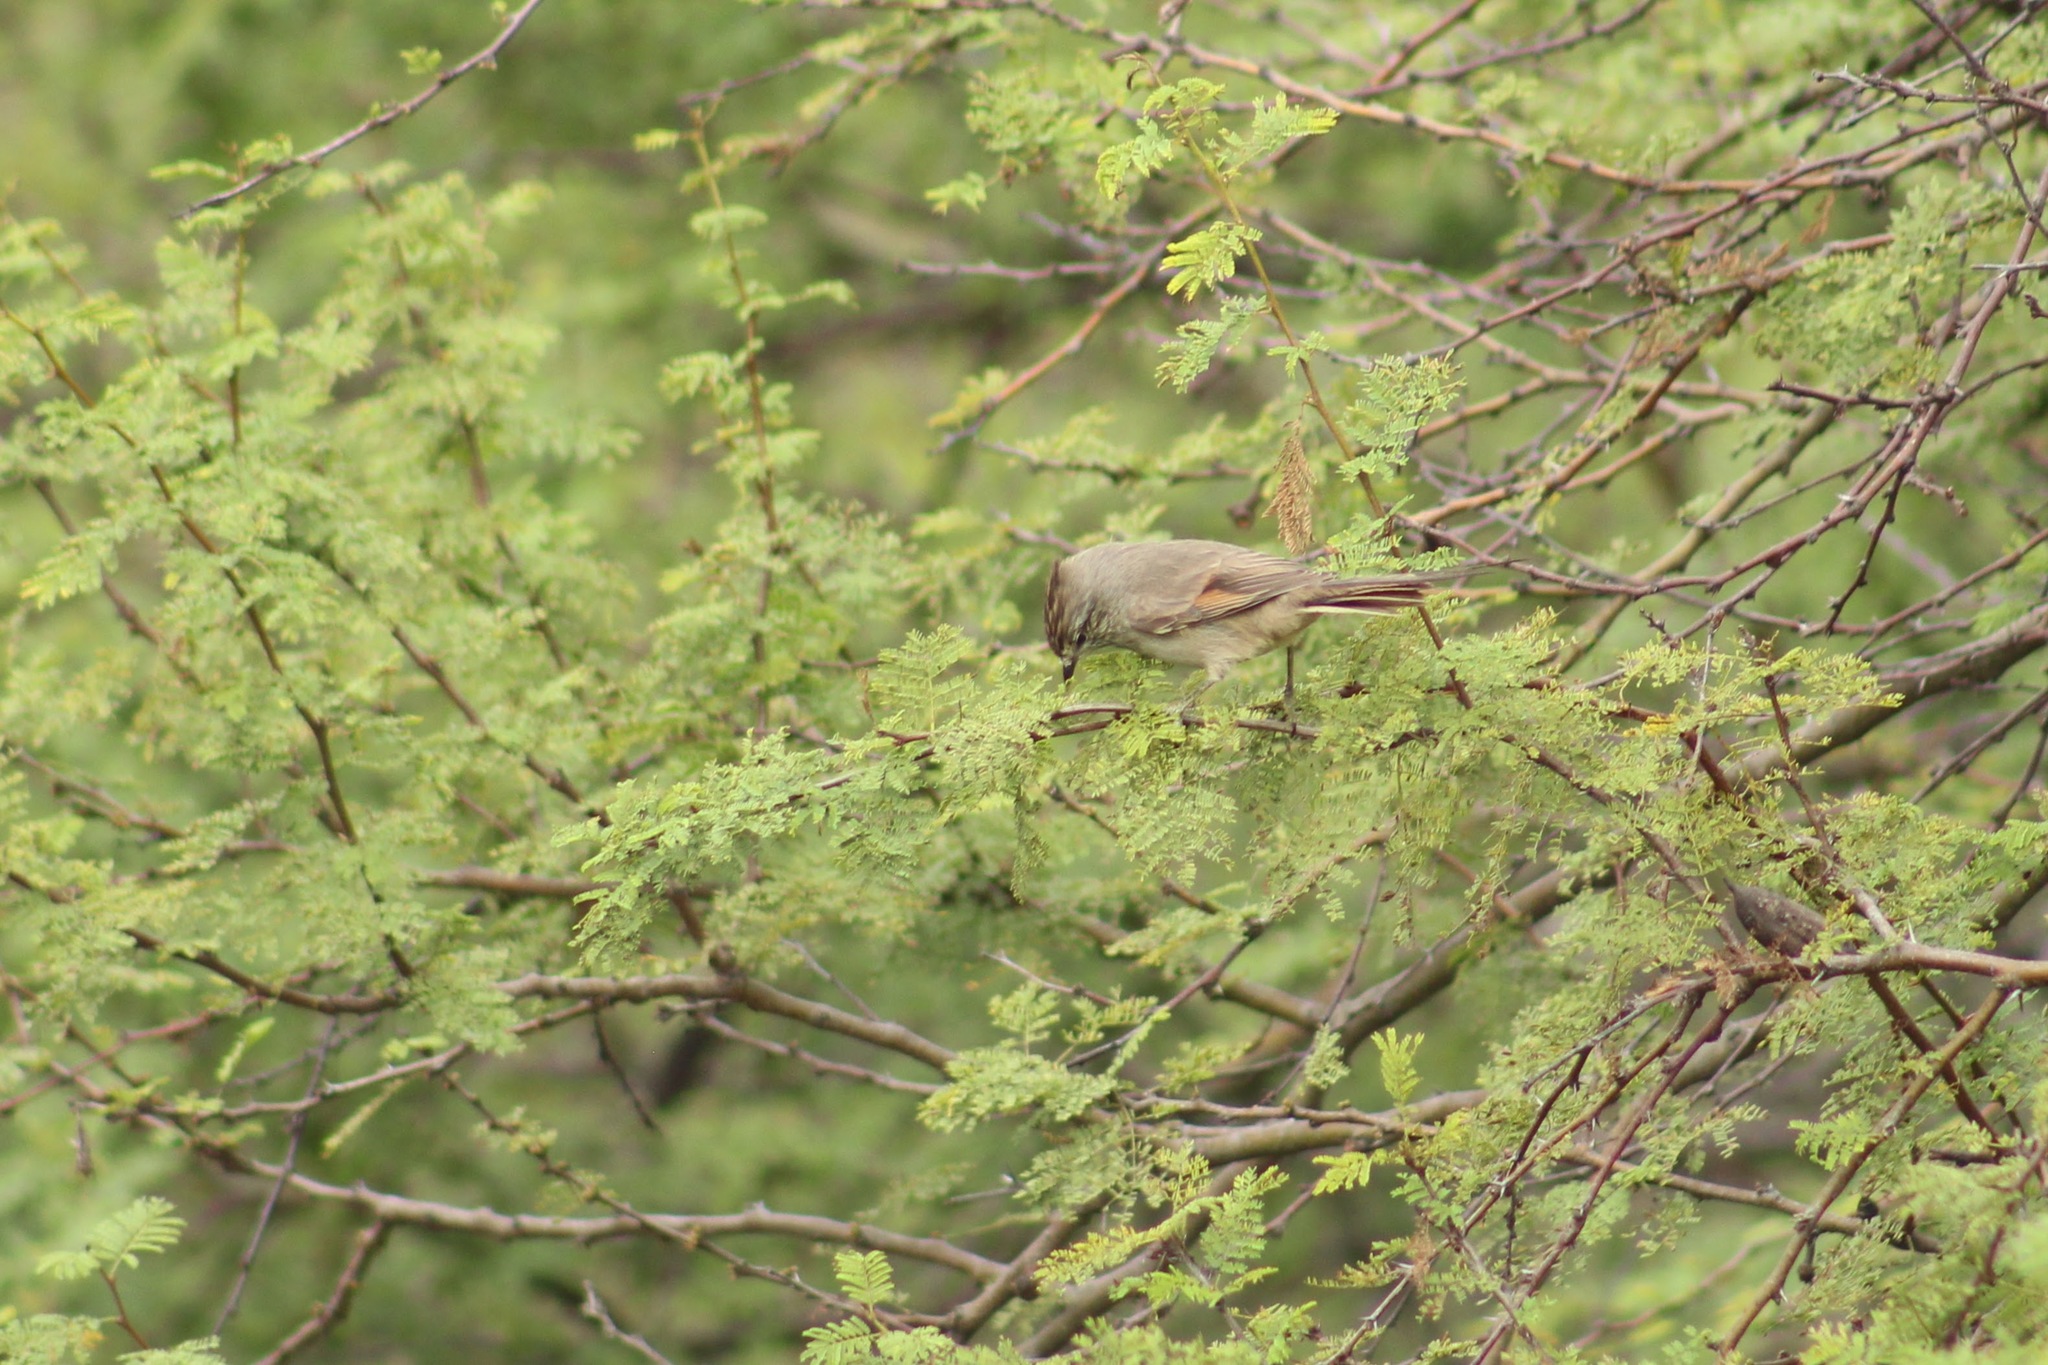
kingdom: Animalia
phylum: Chordata
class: Aves
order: Passeriformes
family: Furnariidae
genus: Leptasthenura
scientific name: Leptasthenura platensis
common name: Tufted tit-spinetail
